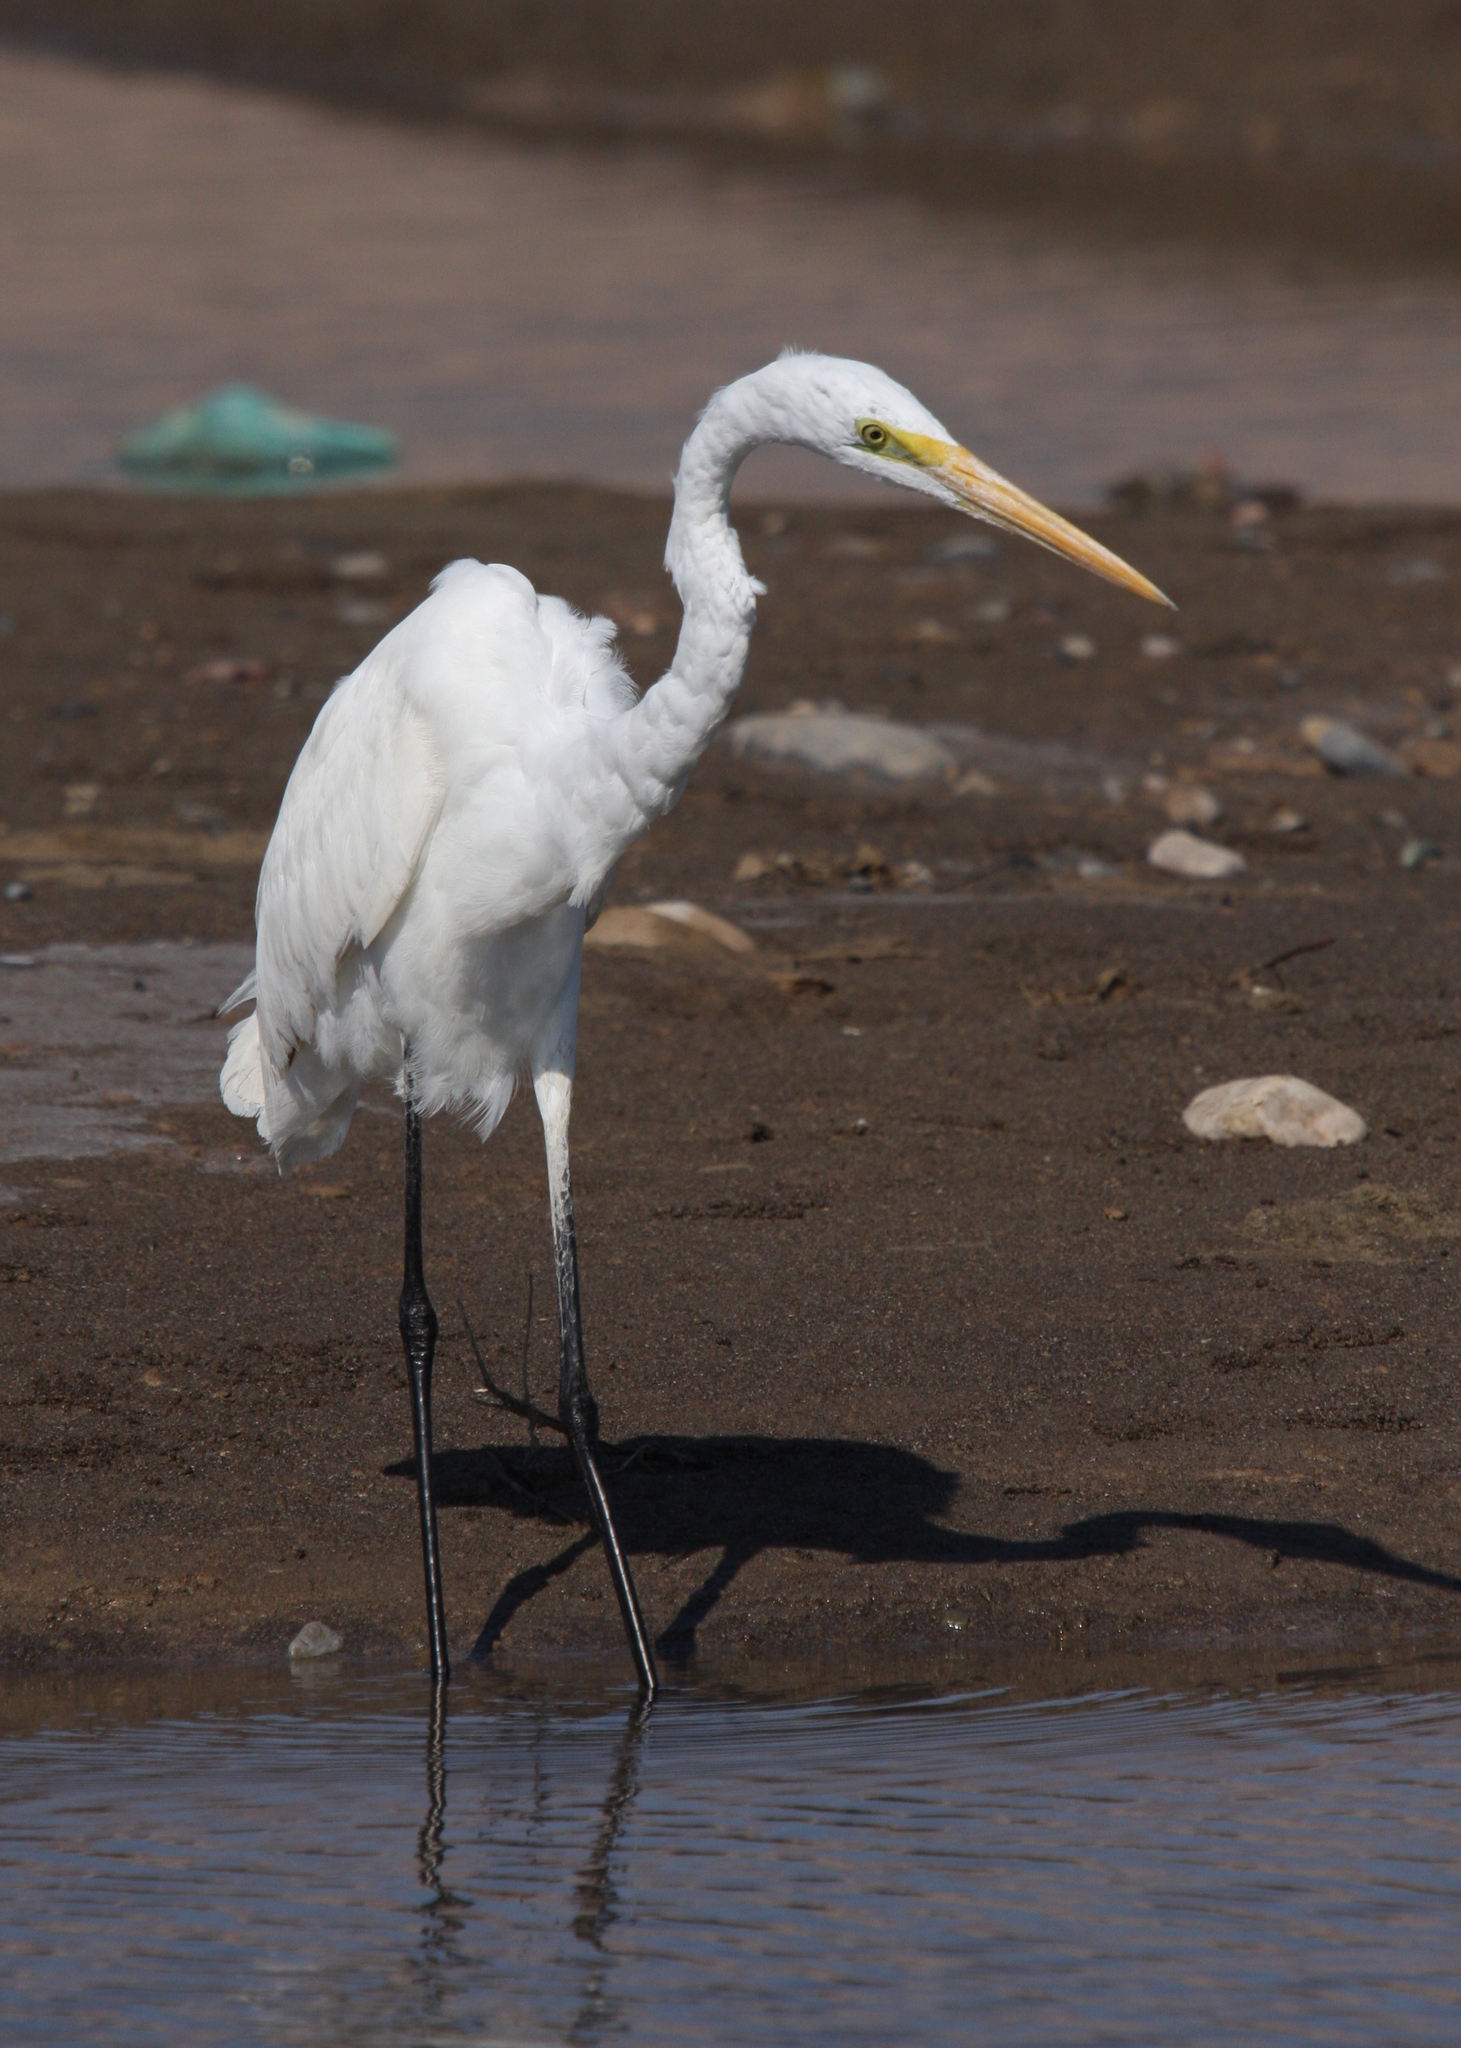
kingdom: Animalia
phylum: Chordata
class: Aves
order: Pelecaniformes
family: Ardeidae
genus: Ardea
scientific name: Ardea alba
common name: Great egret
